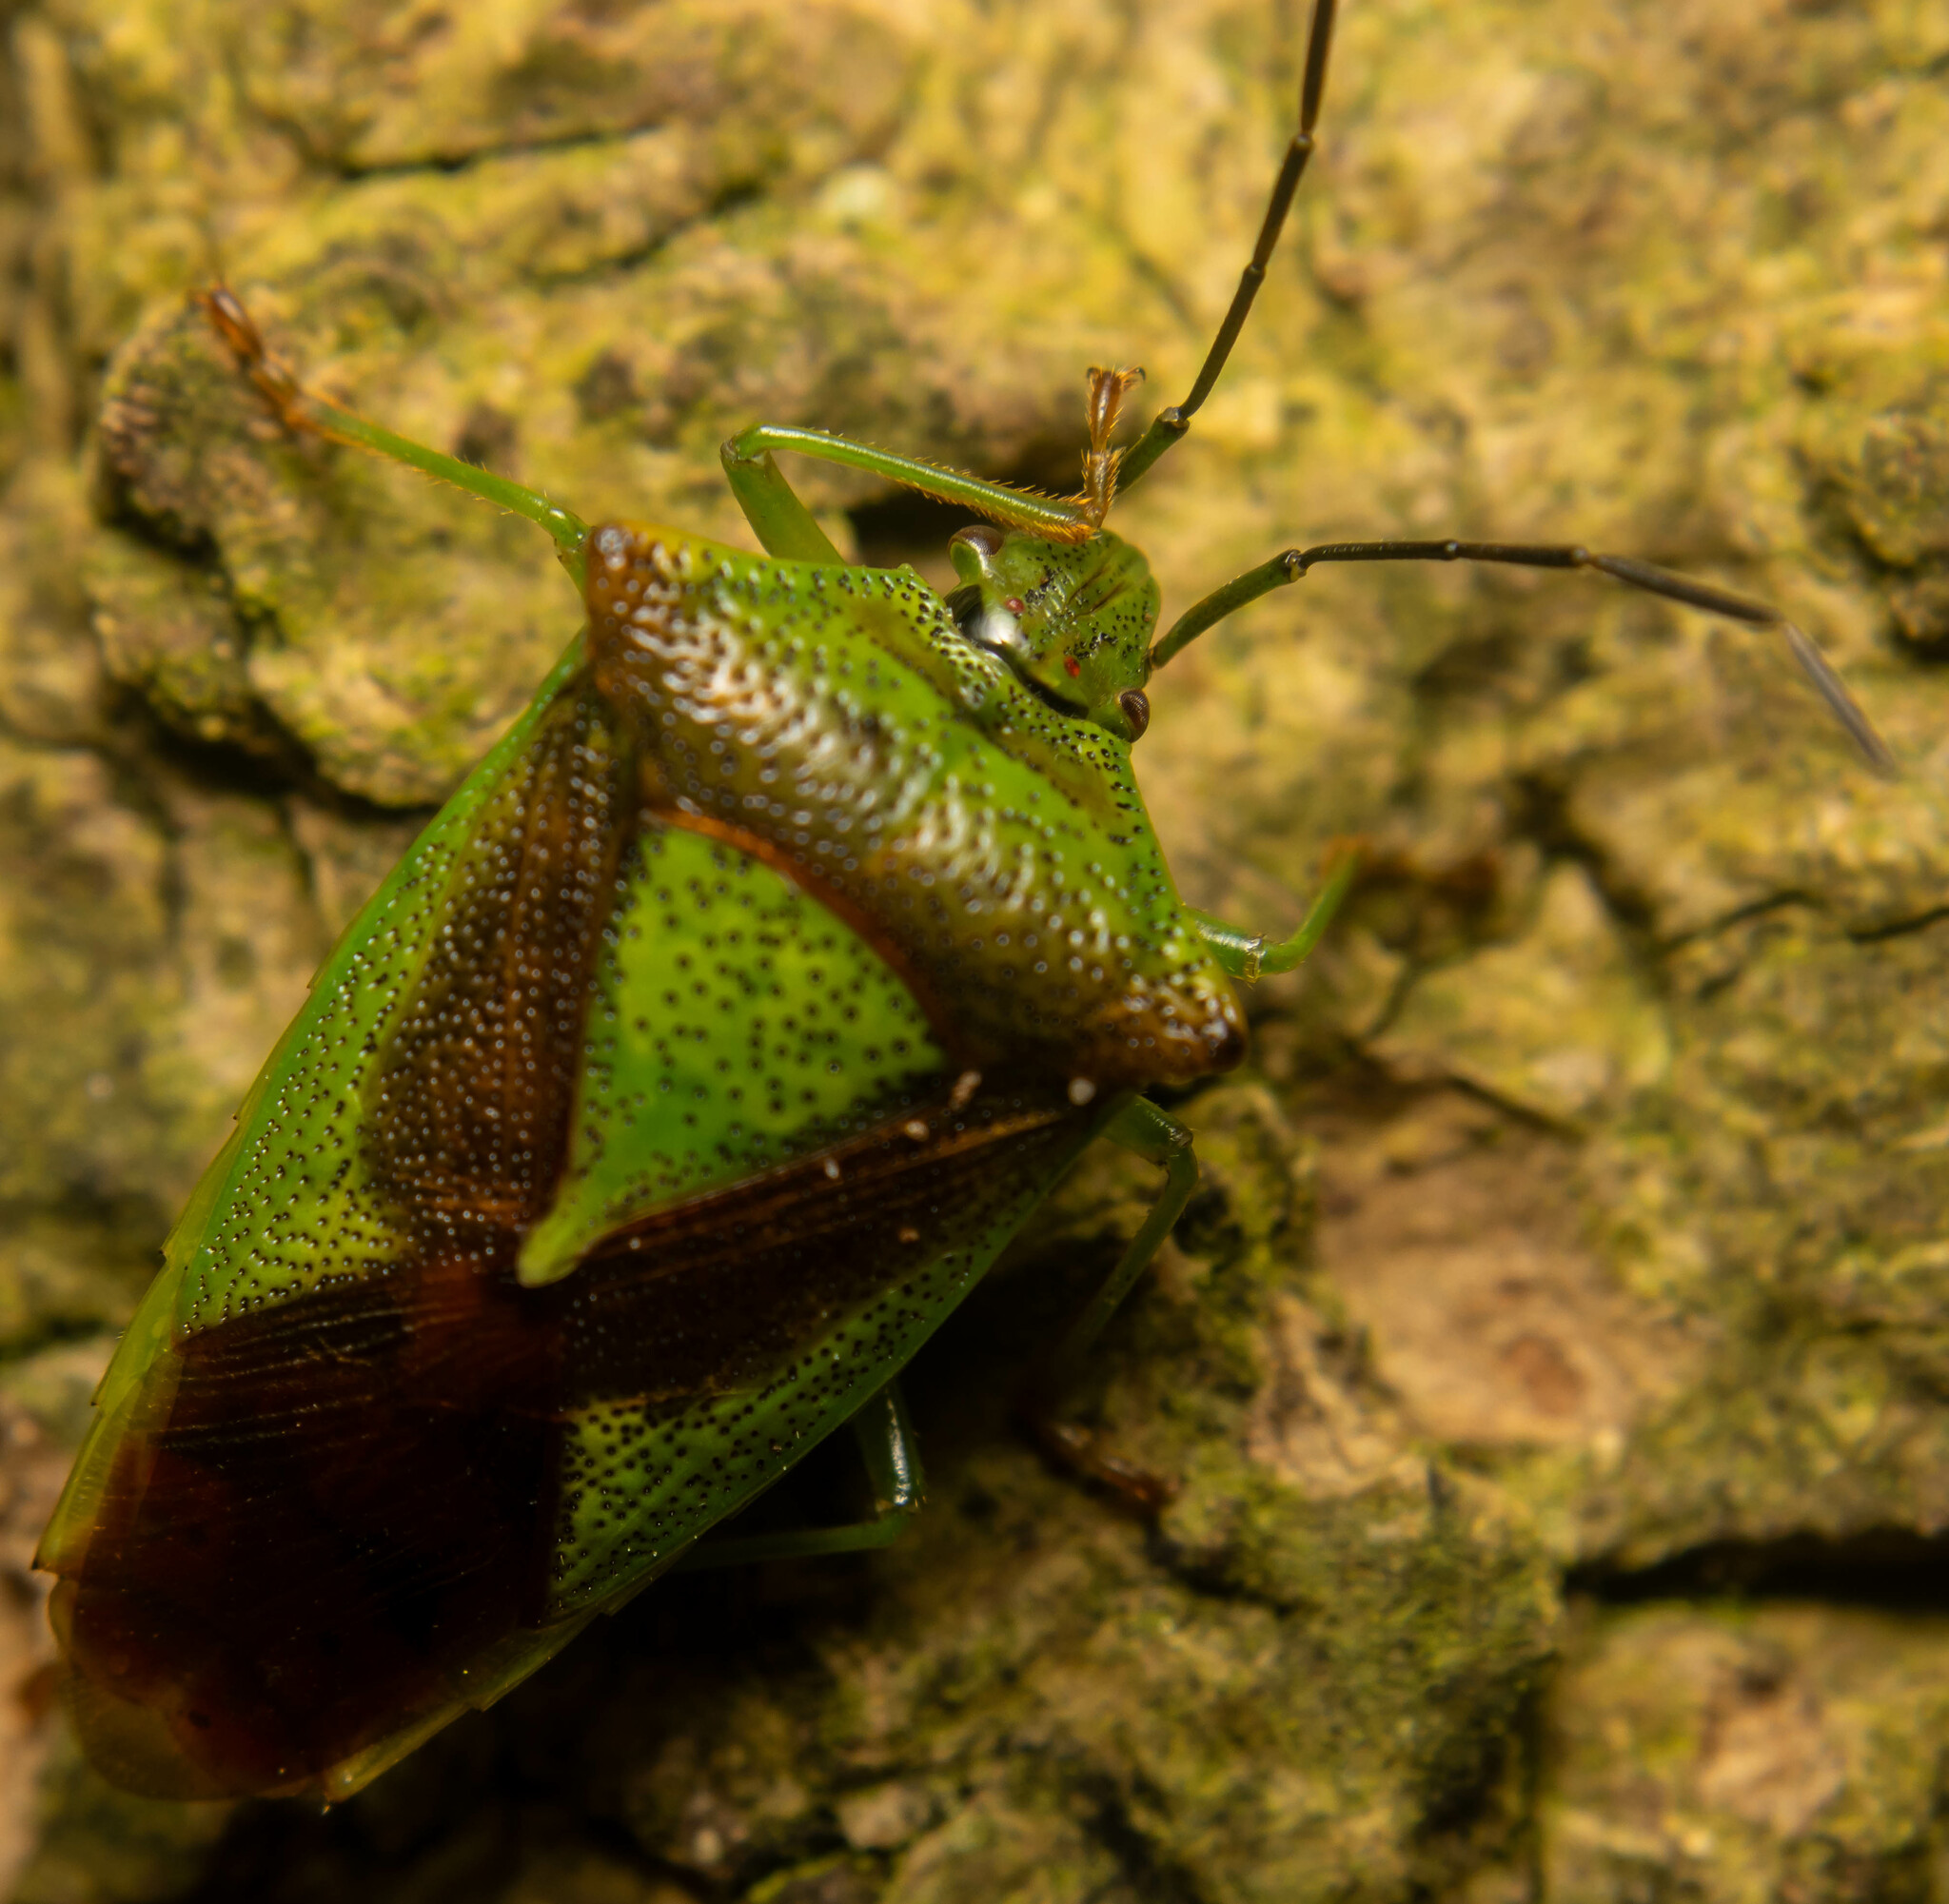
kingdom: Animalia
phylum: Arthropoda
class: Insecta
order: Hemiptera
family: Acanthosomatidae
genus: Acanthosoma
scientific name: Acanthosoma haemorrhoidale
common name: Hawthorn shieldbug
